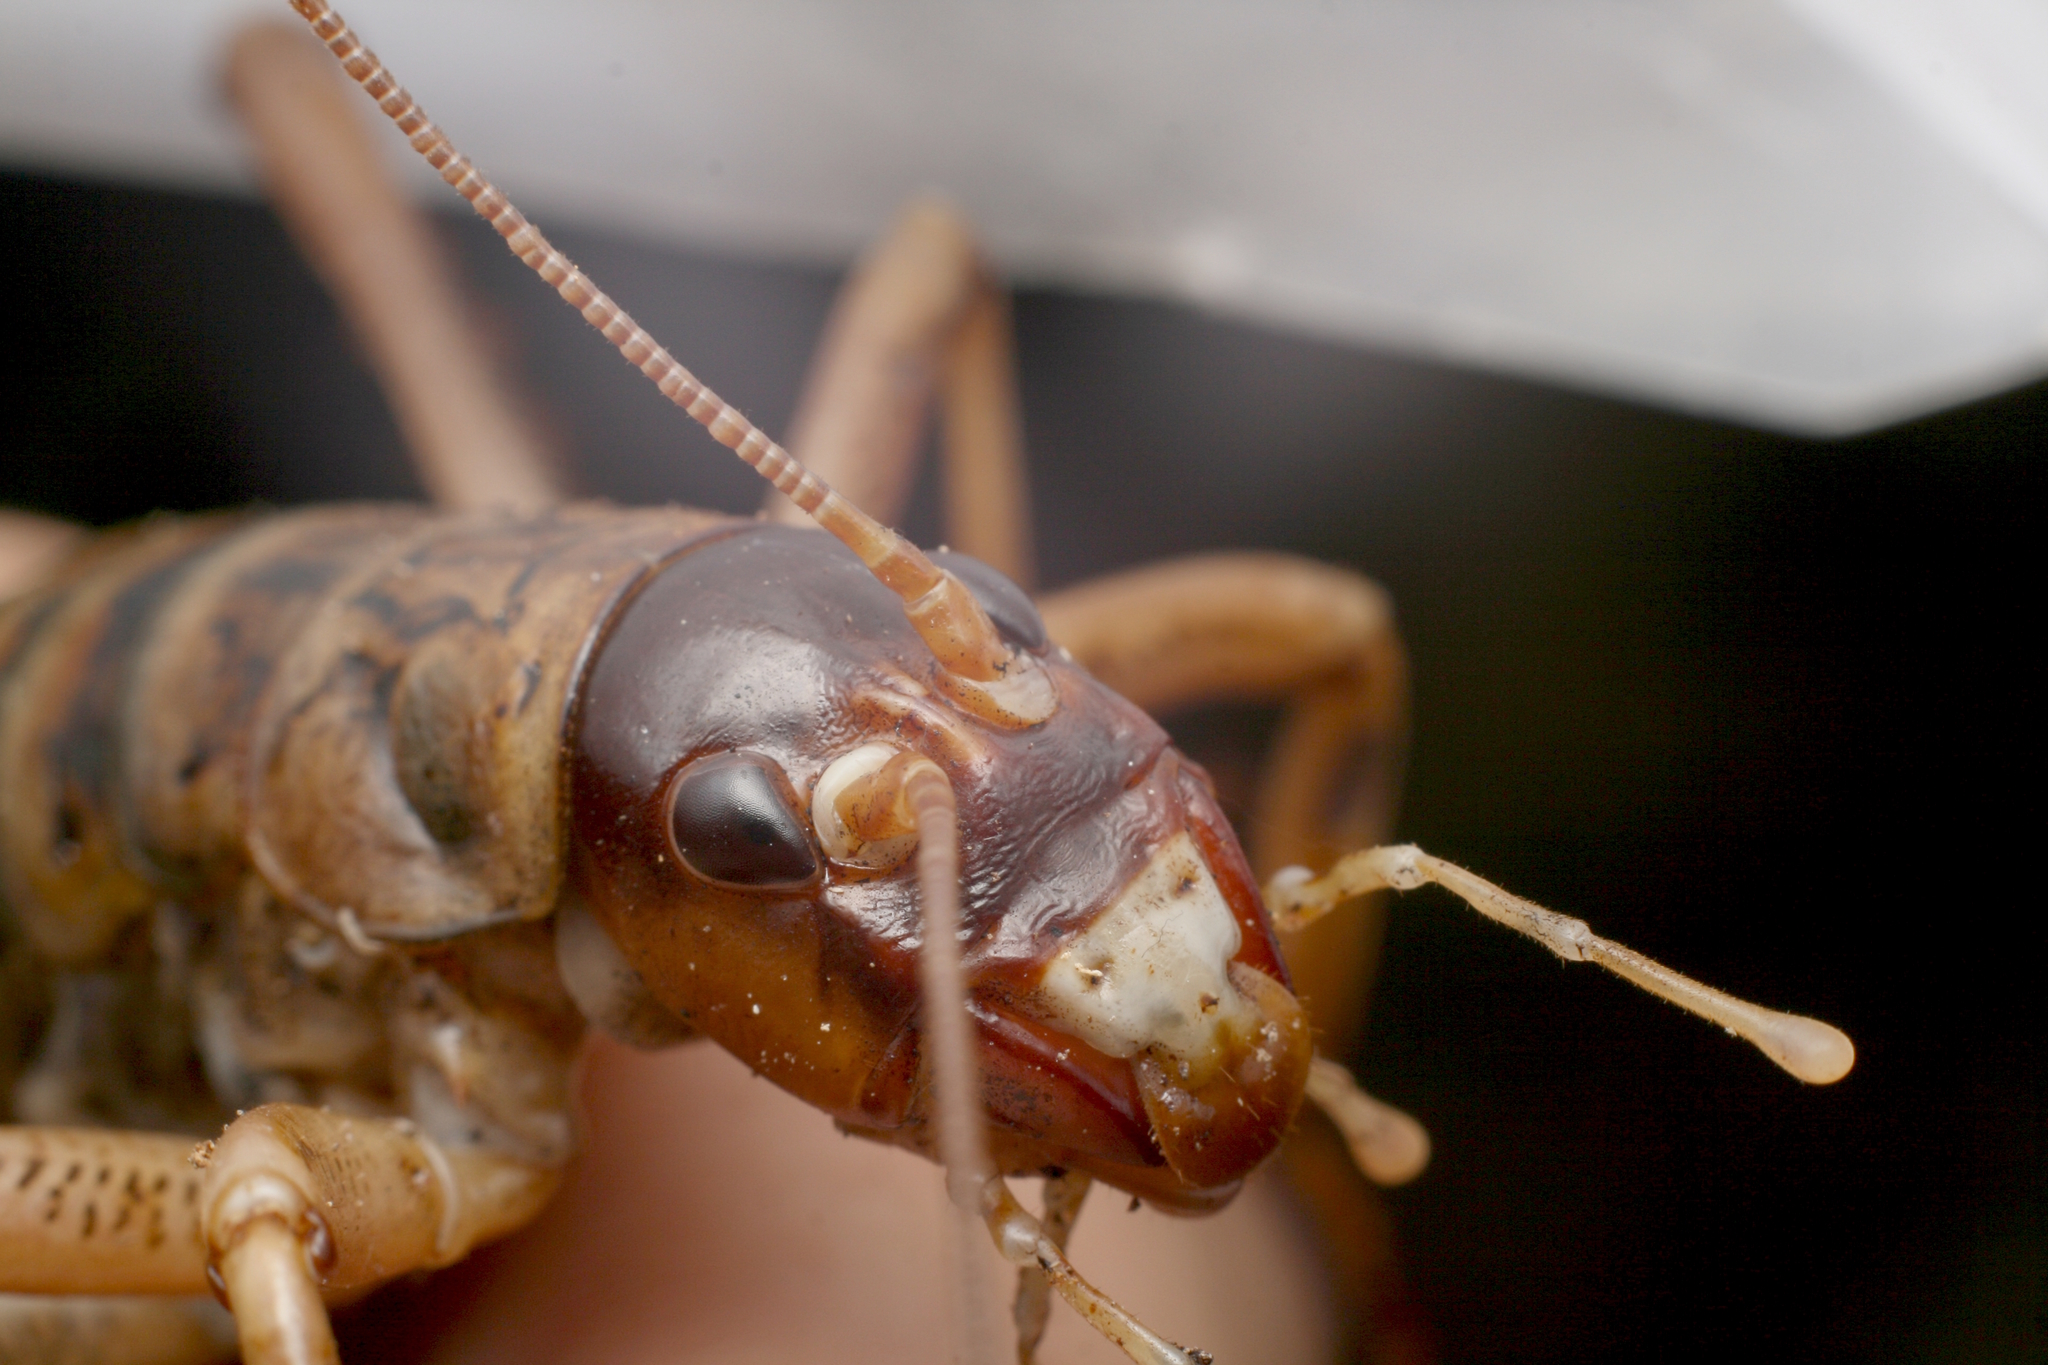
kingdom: Animalia
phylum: Arthropoda
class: Insecta
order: Orthoptera
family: Anostostomatidae
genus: Hemideina
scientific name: Hemideina femorata
